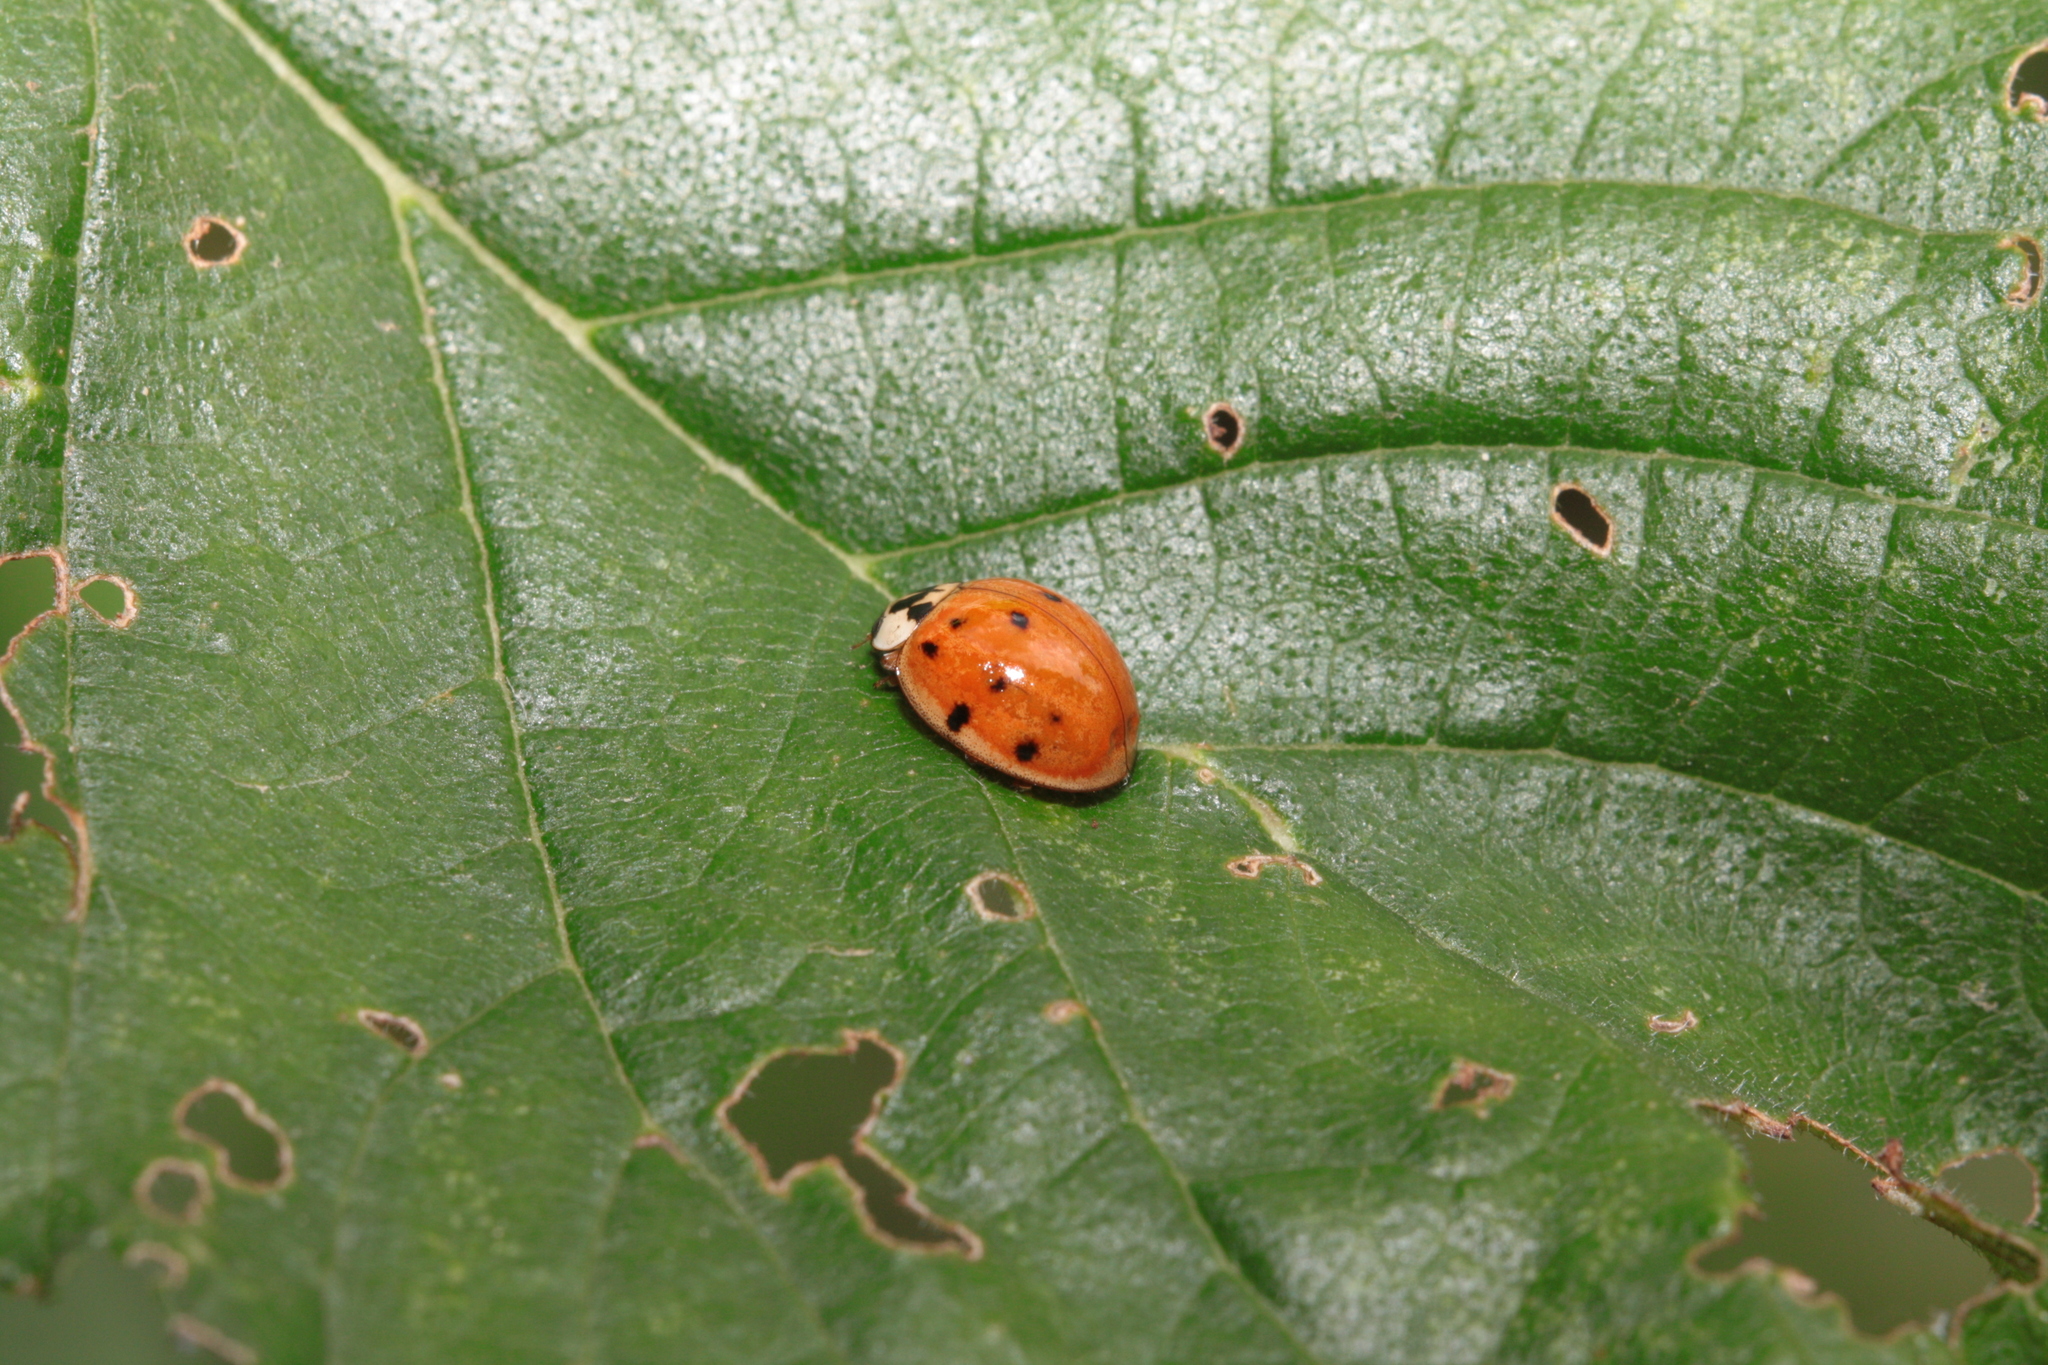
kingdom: Animalia
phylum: Arthropoda
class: Insecta
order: Coleoptera
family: Coccinellidae
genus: Harmonia
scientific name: Harmonia axyridis
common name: Harlequin ladybird
